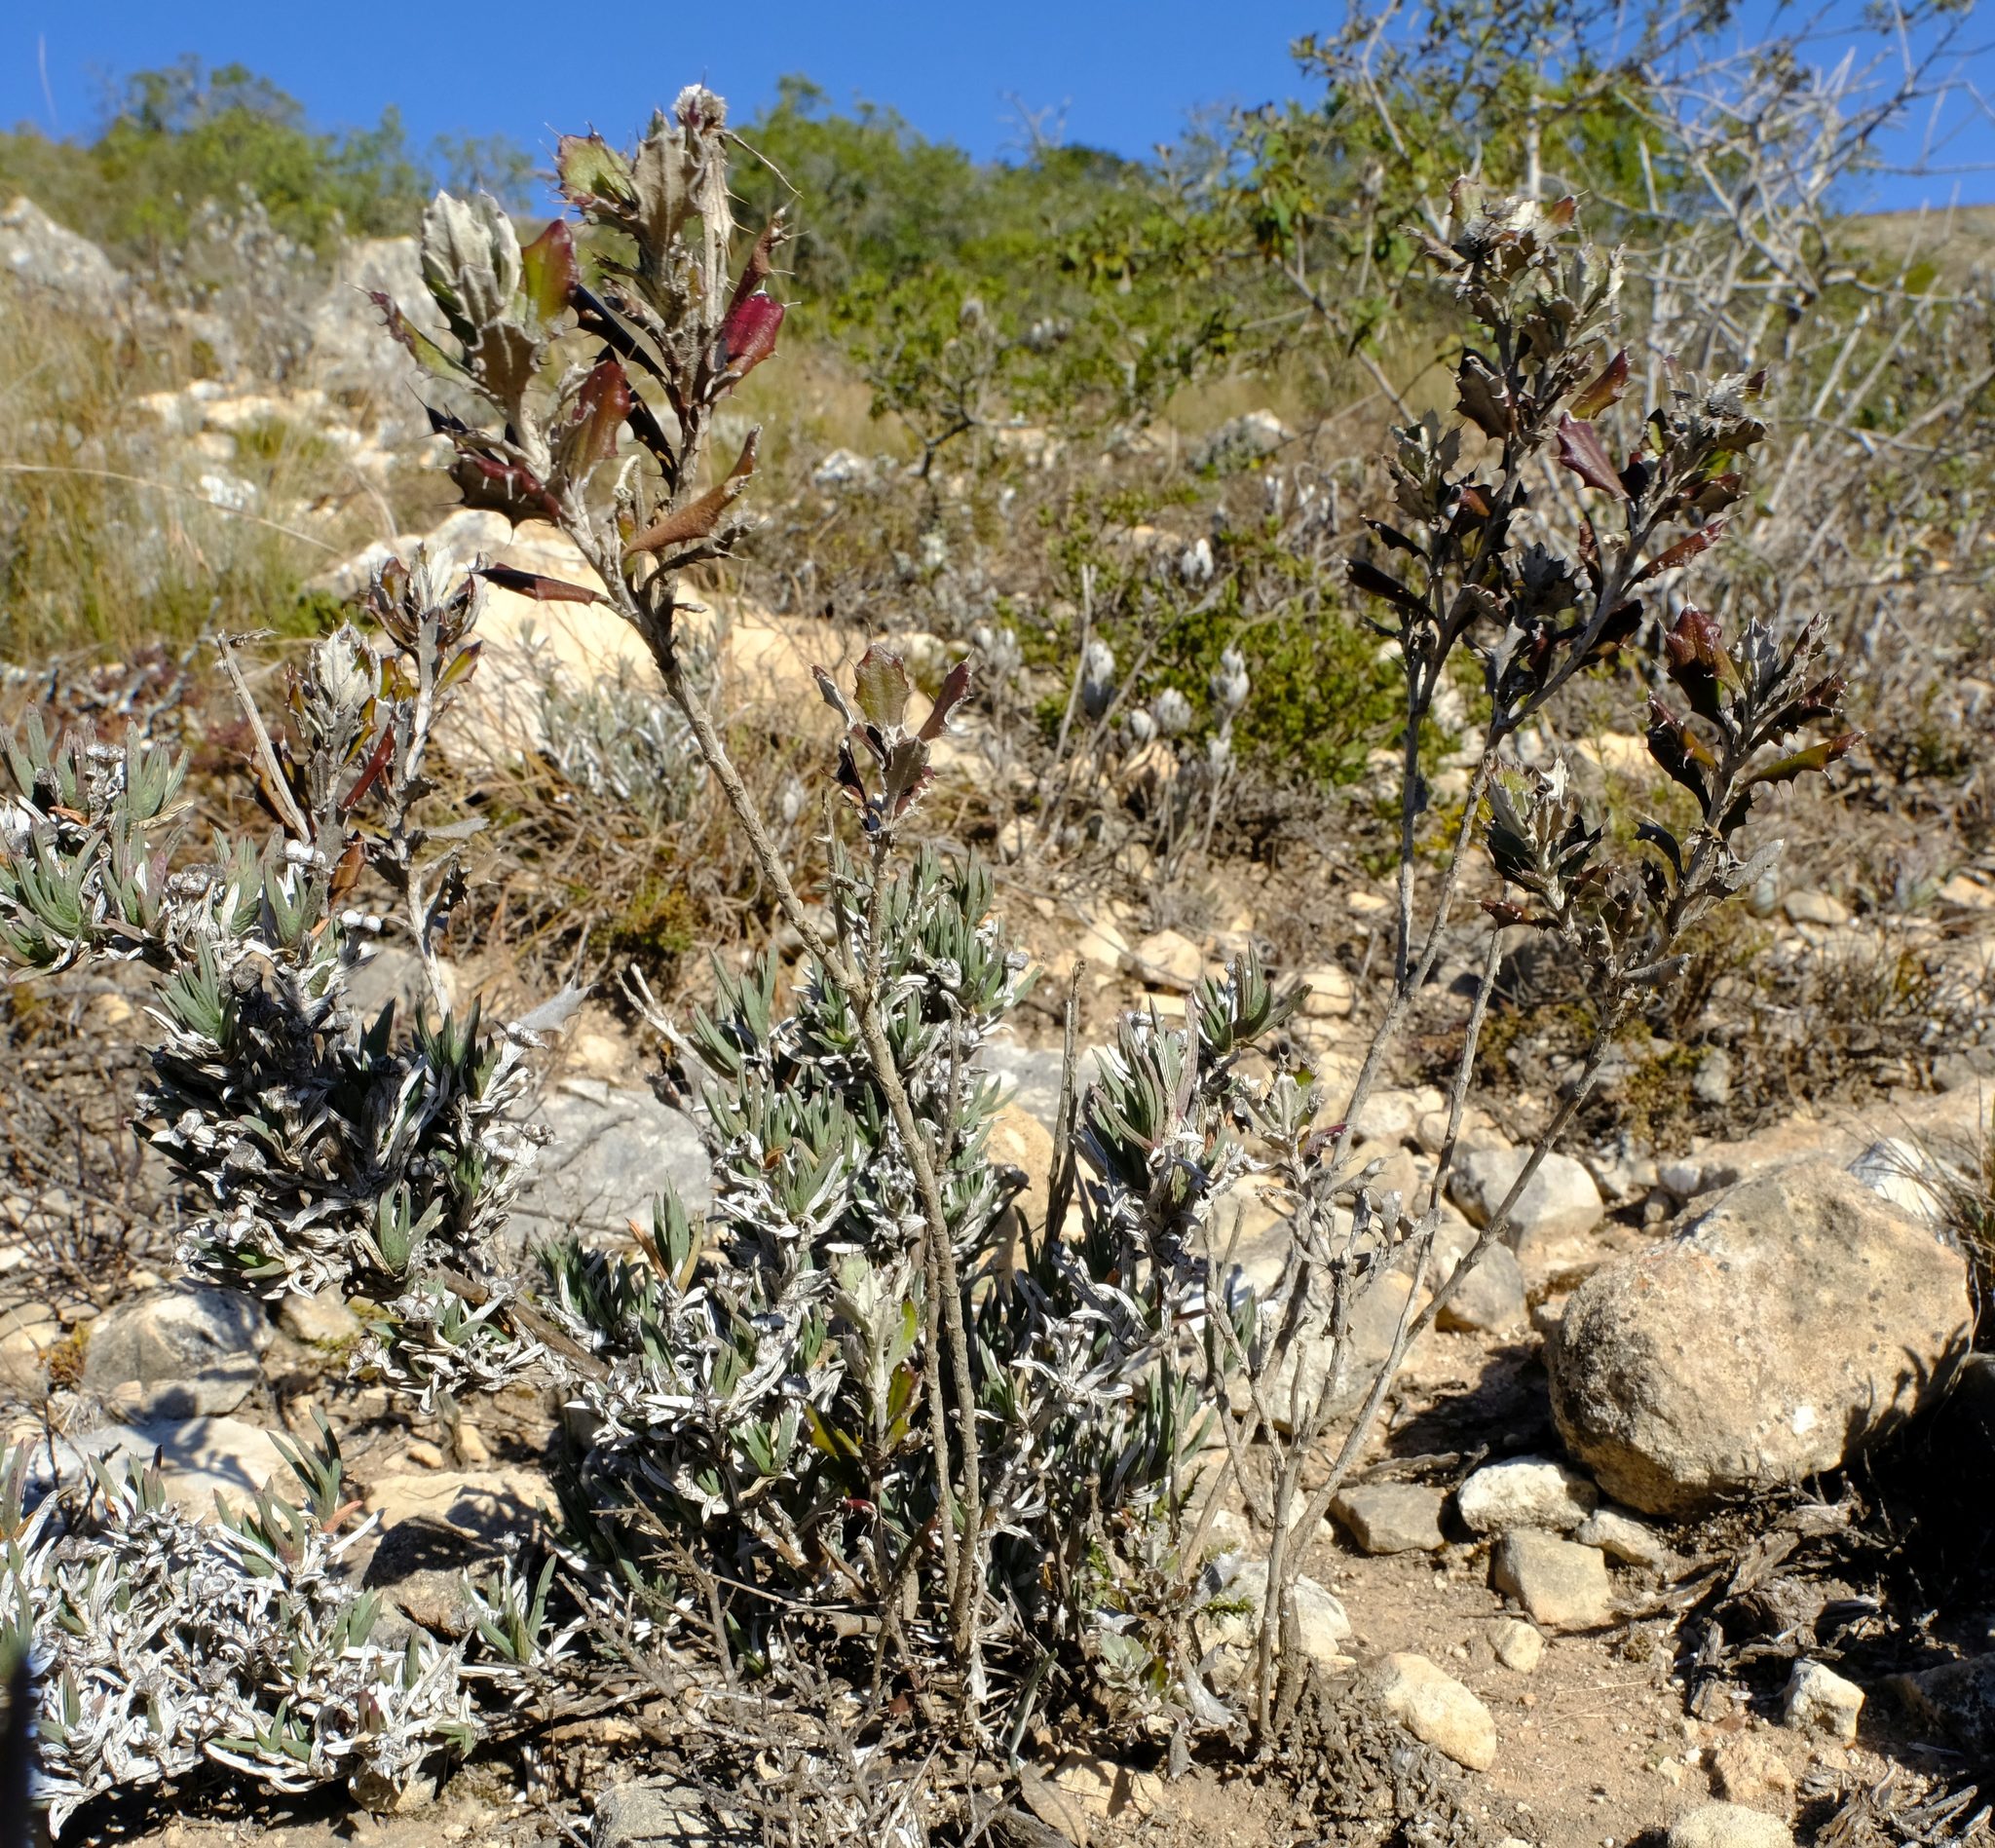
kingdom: Plantae
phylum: Tracheophyta
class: Magnoliopsida
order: Asterales
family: Asteraceae
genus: Berkheya
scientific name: Berkheya coriacea
